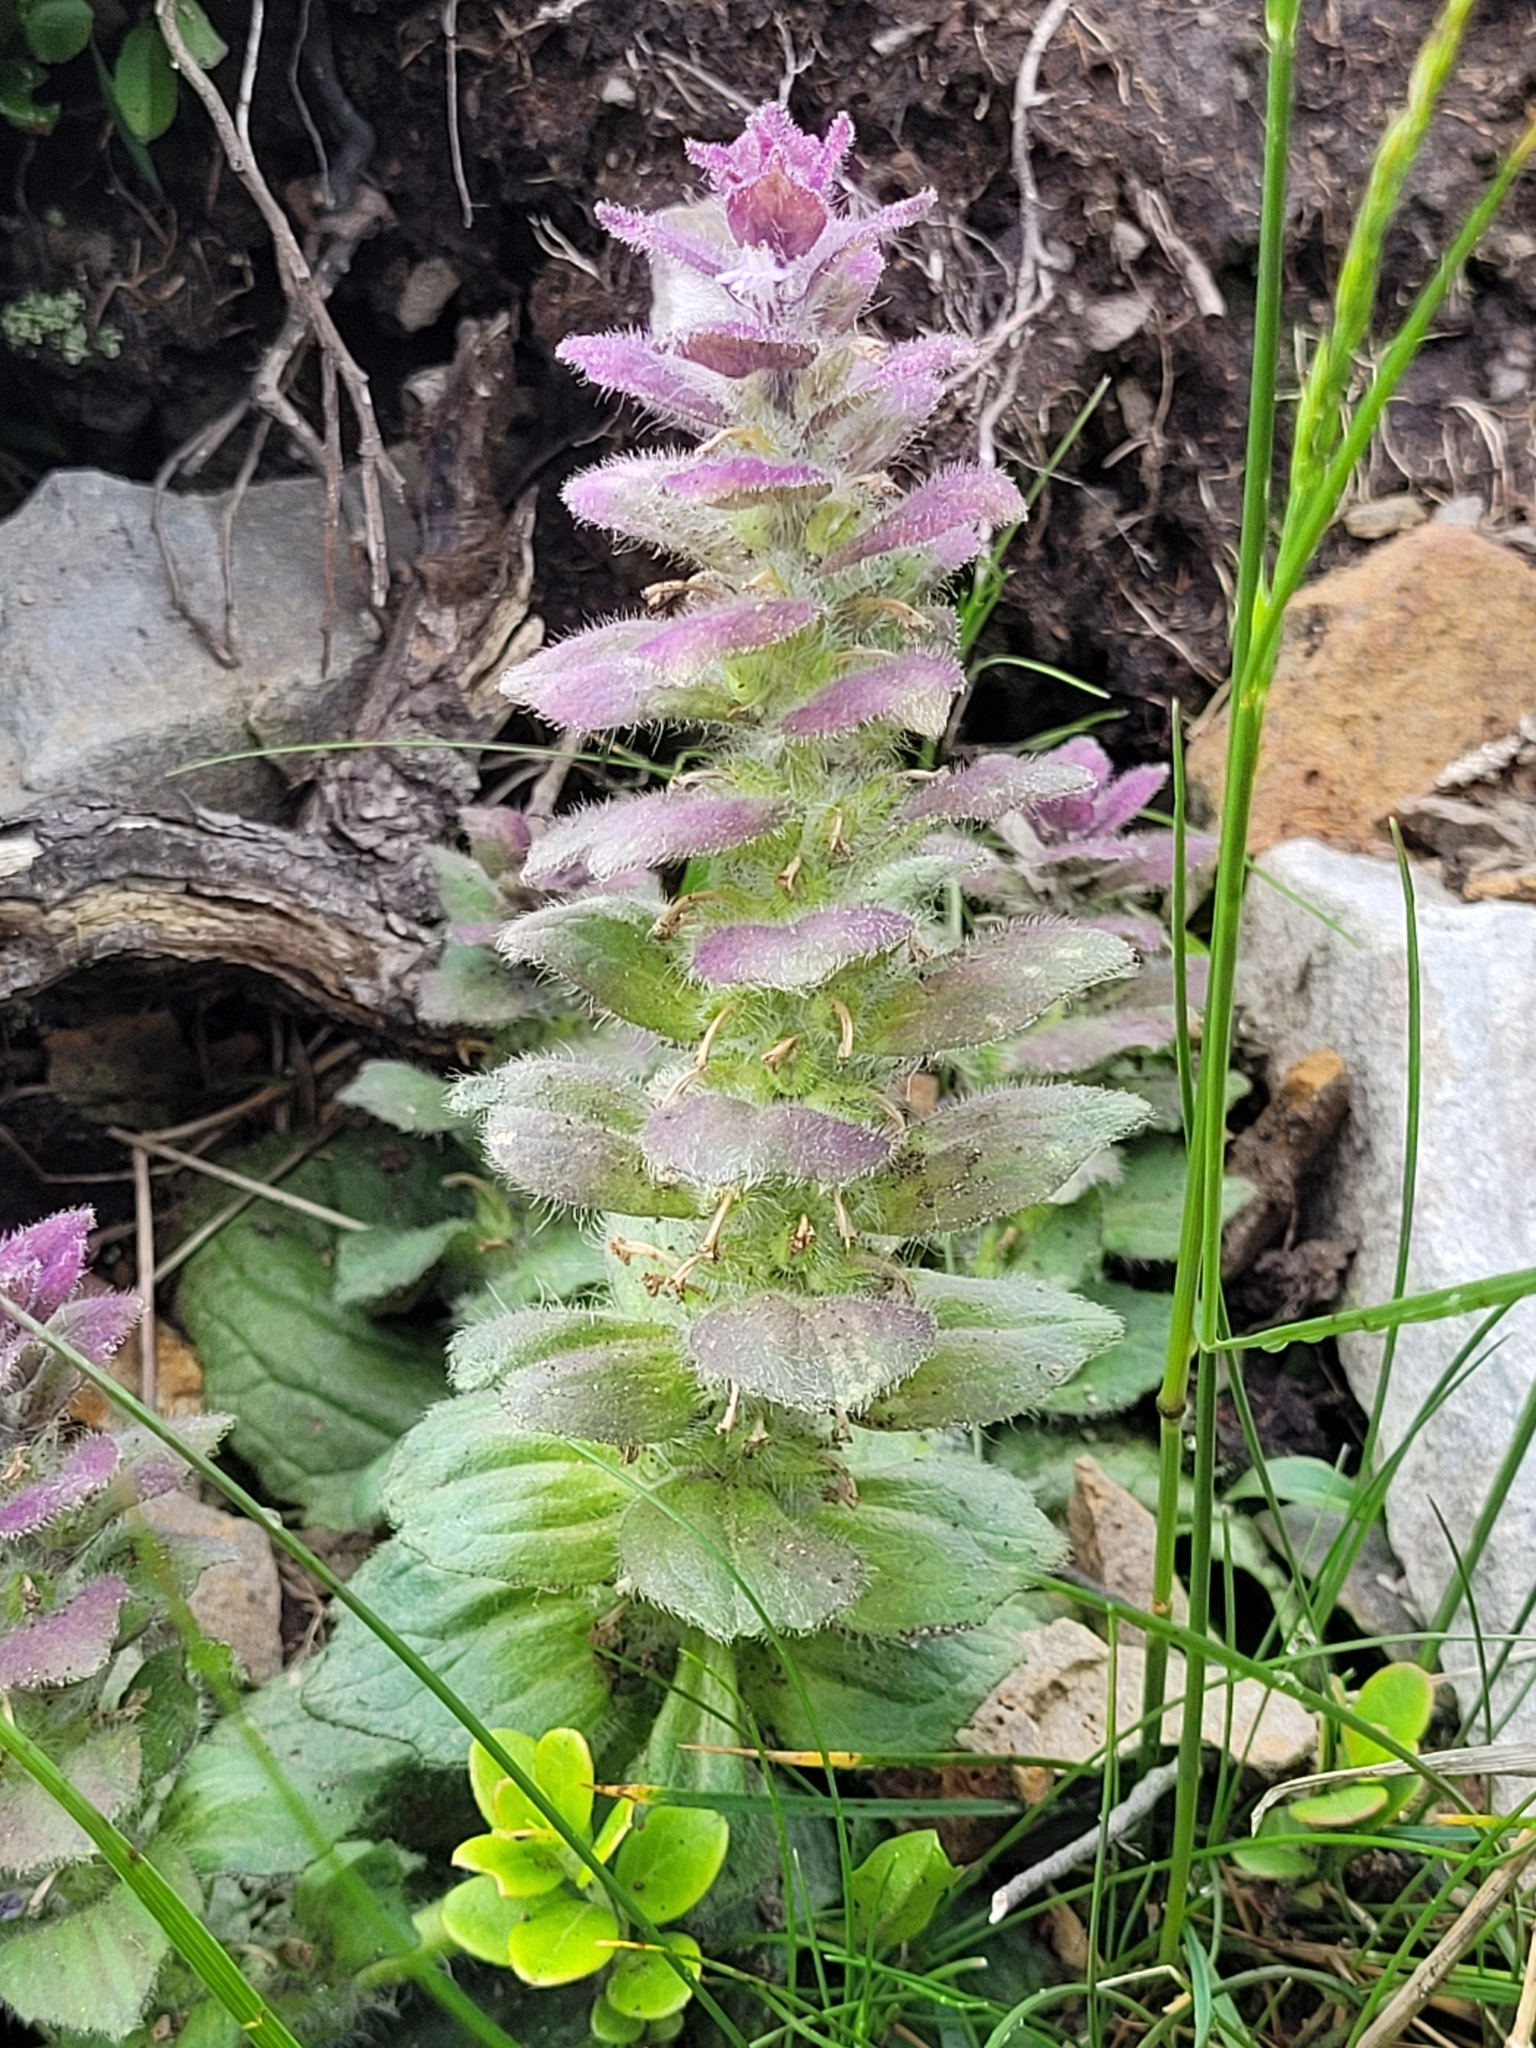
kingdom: Plantae
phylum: Tracheophyta
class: Magnoliopsida
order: Lamiales
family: Lamiaceae
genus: Ajuga
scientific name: Ajuga pyramidalis
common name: Pyramid bugle
